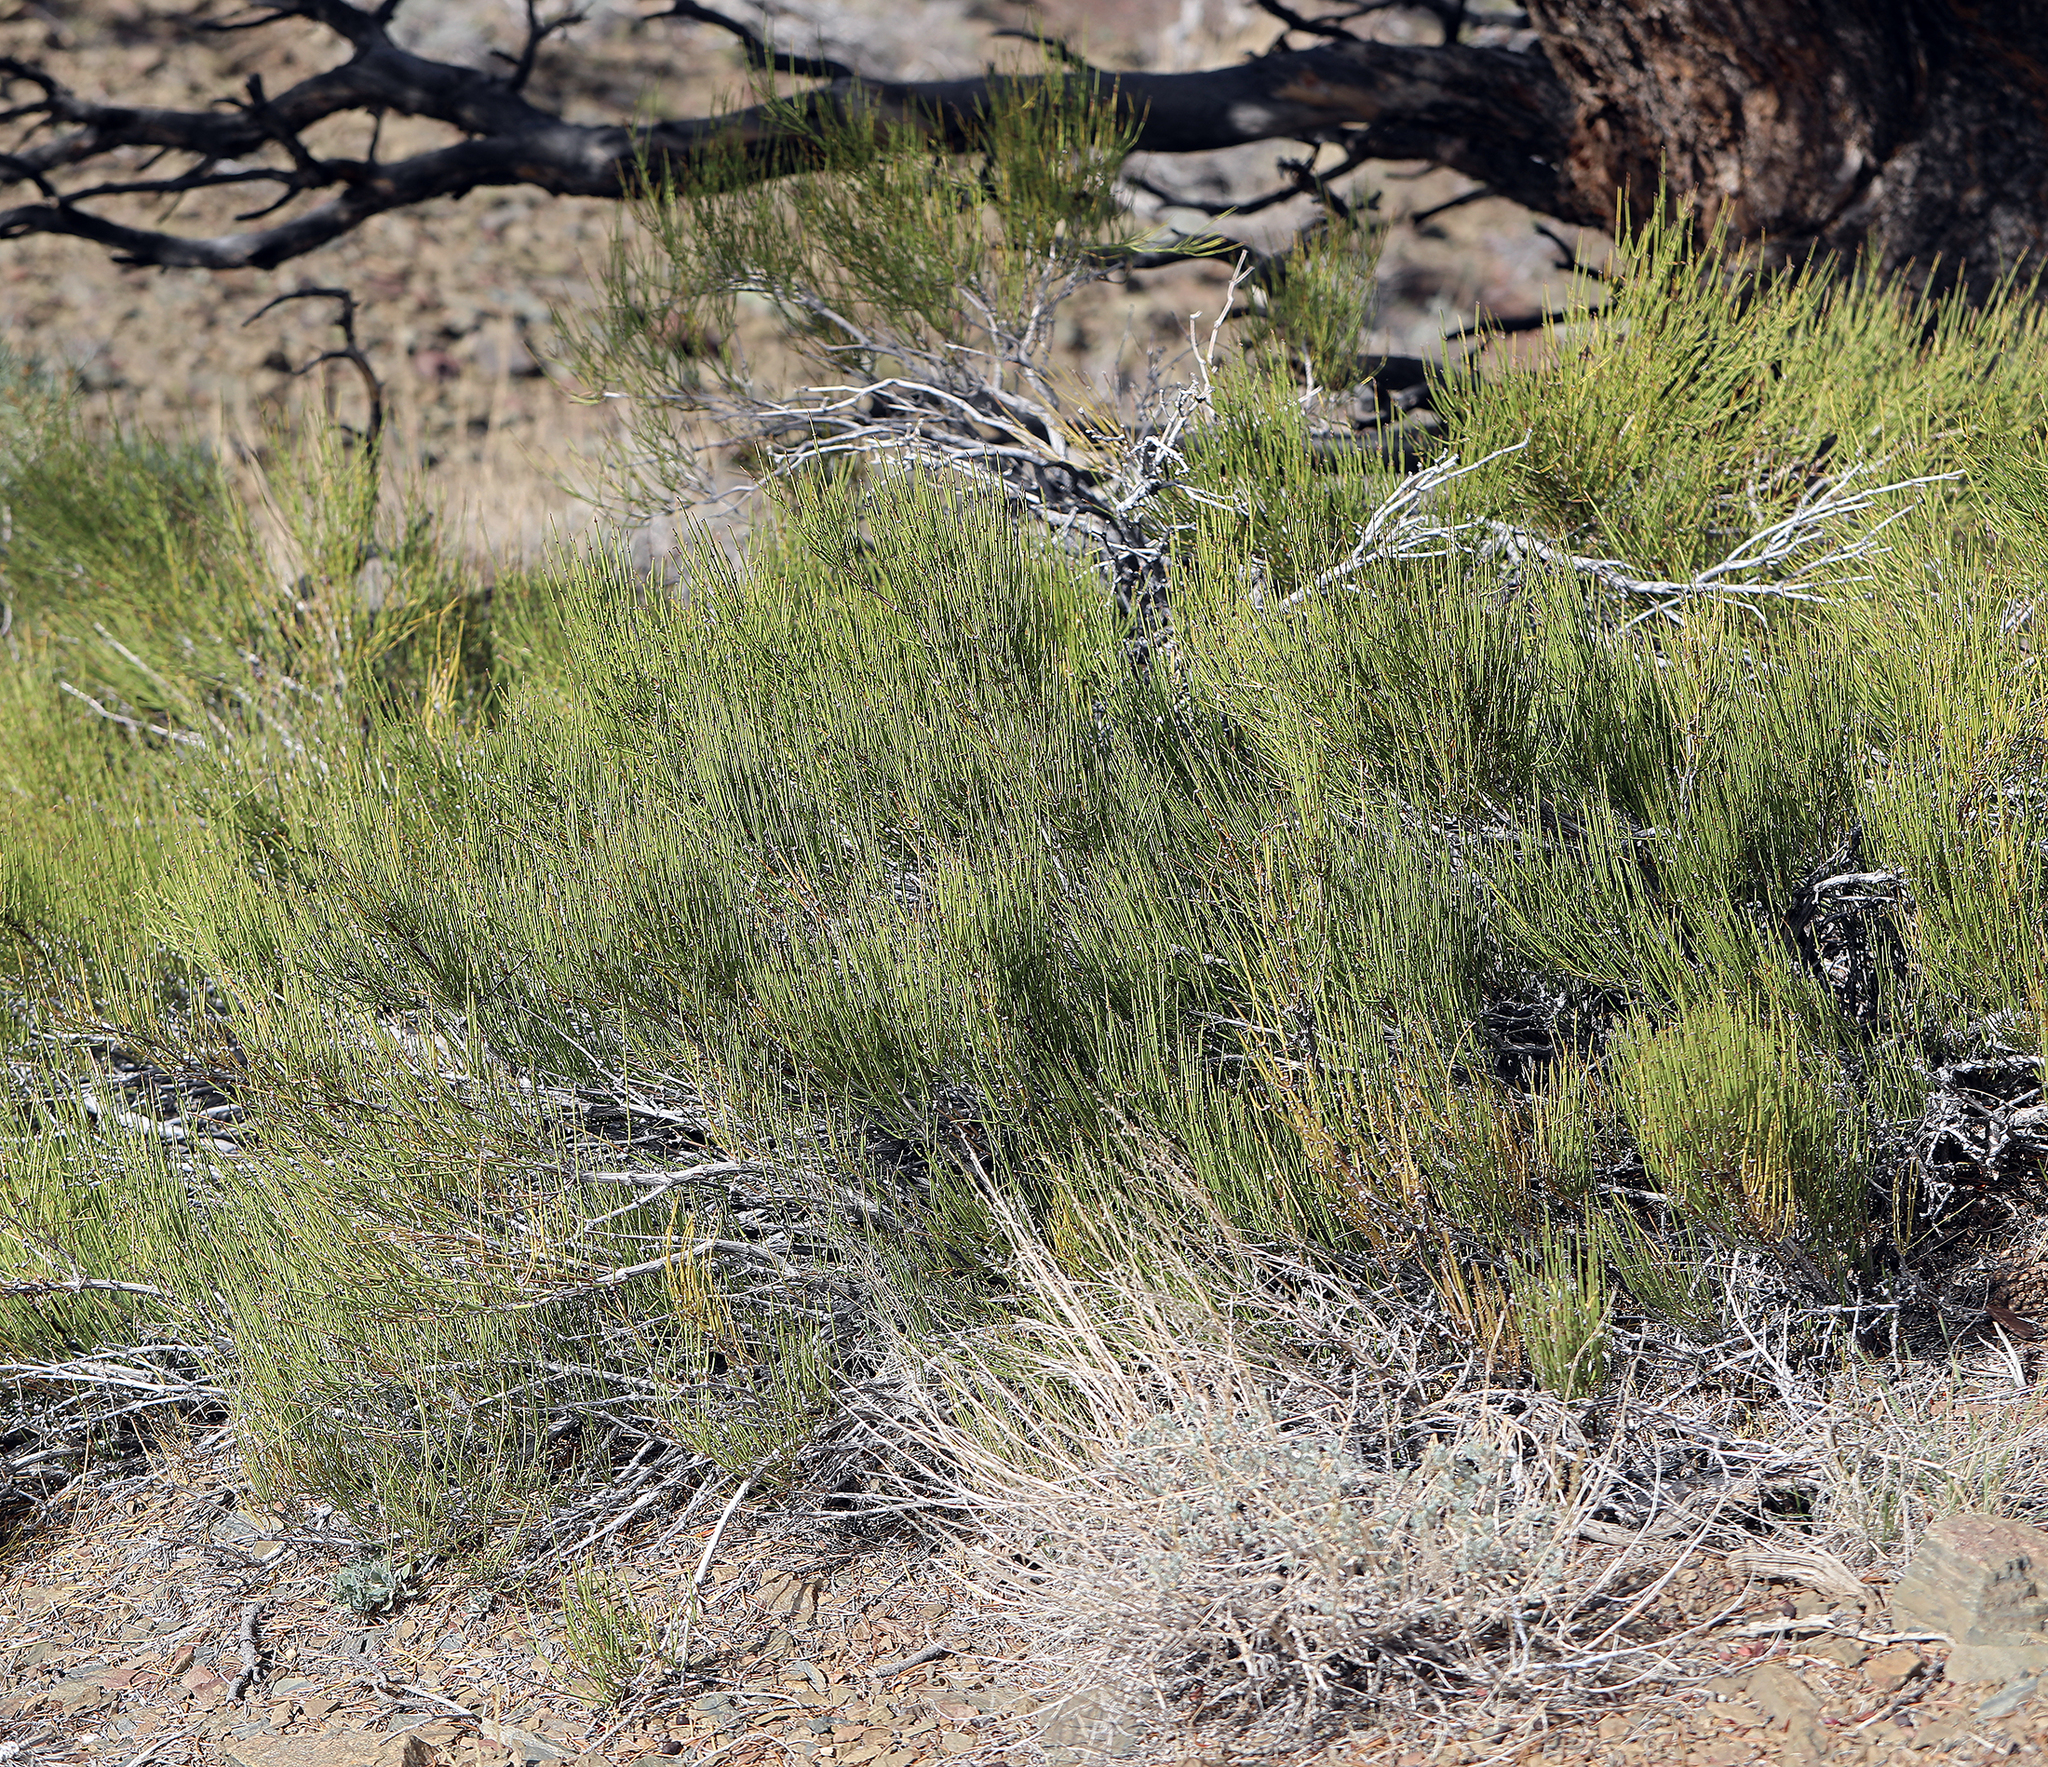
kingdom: Plantae
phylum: Tracheophyta
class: Gnetopsida
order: Ephedrales
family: Ephedraceae
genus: Ephedra
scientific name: Ephedra viridis
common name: Green ephedra
